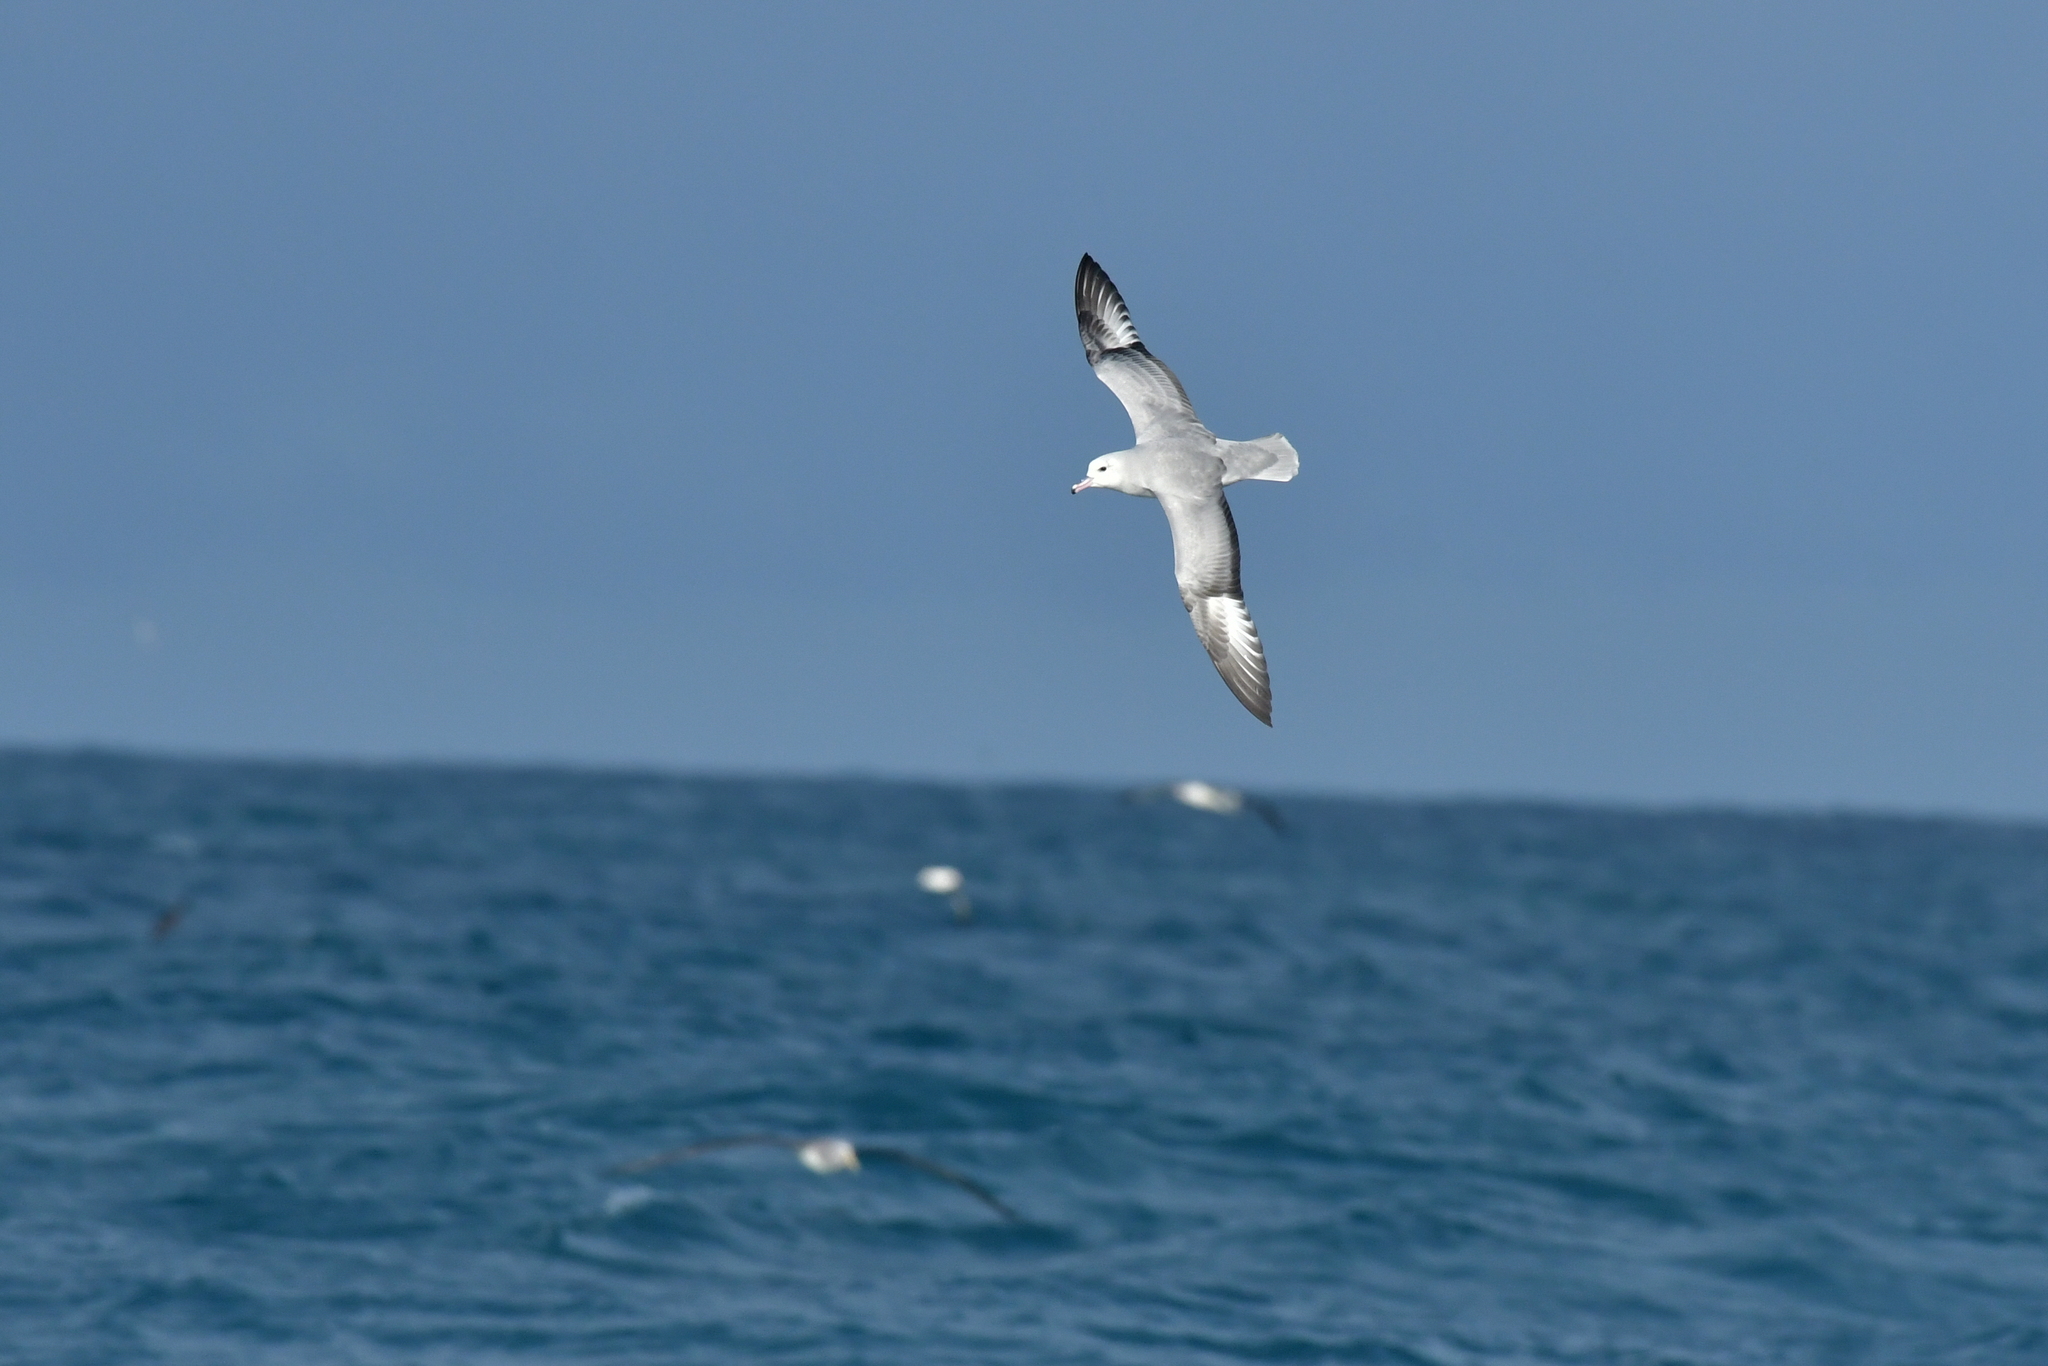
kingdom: Animalia
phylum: Chordata
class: Aves
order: Procellariiformes
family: Procellariidae
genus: Fulmarus
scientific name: Fulmarus glacialoides
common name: Southern fulmar
